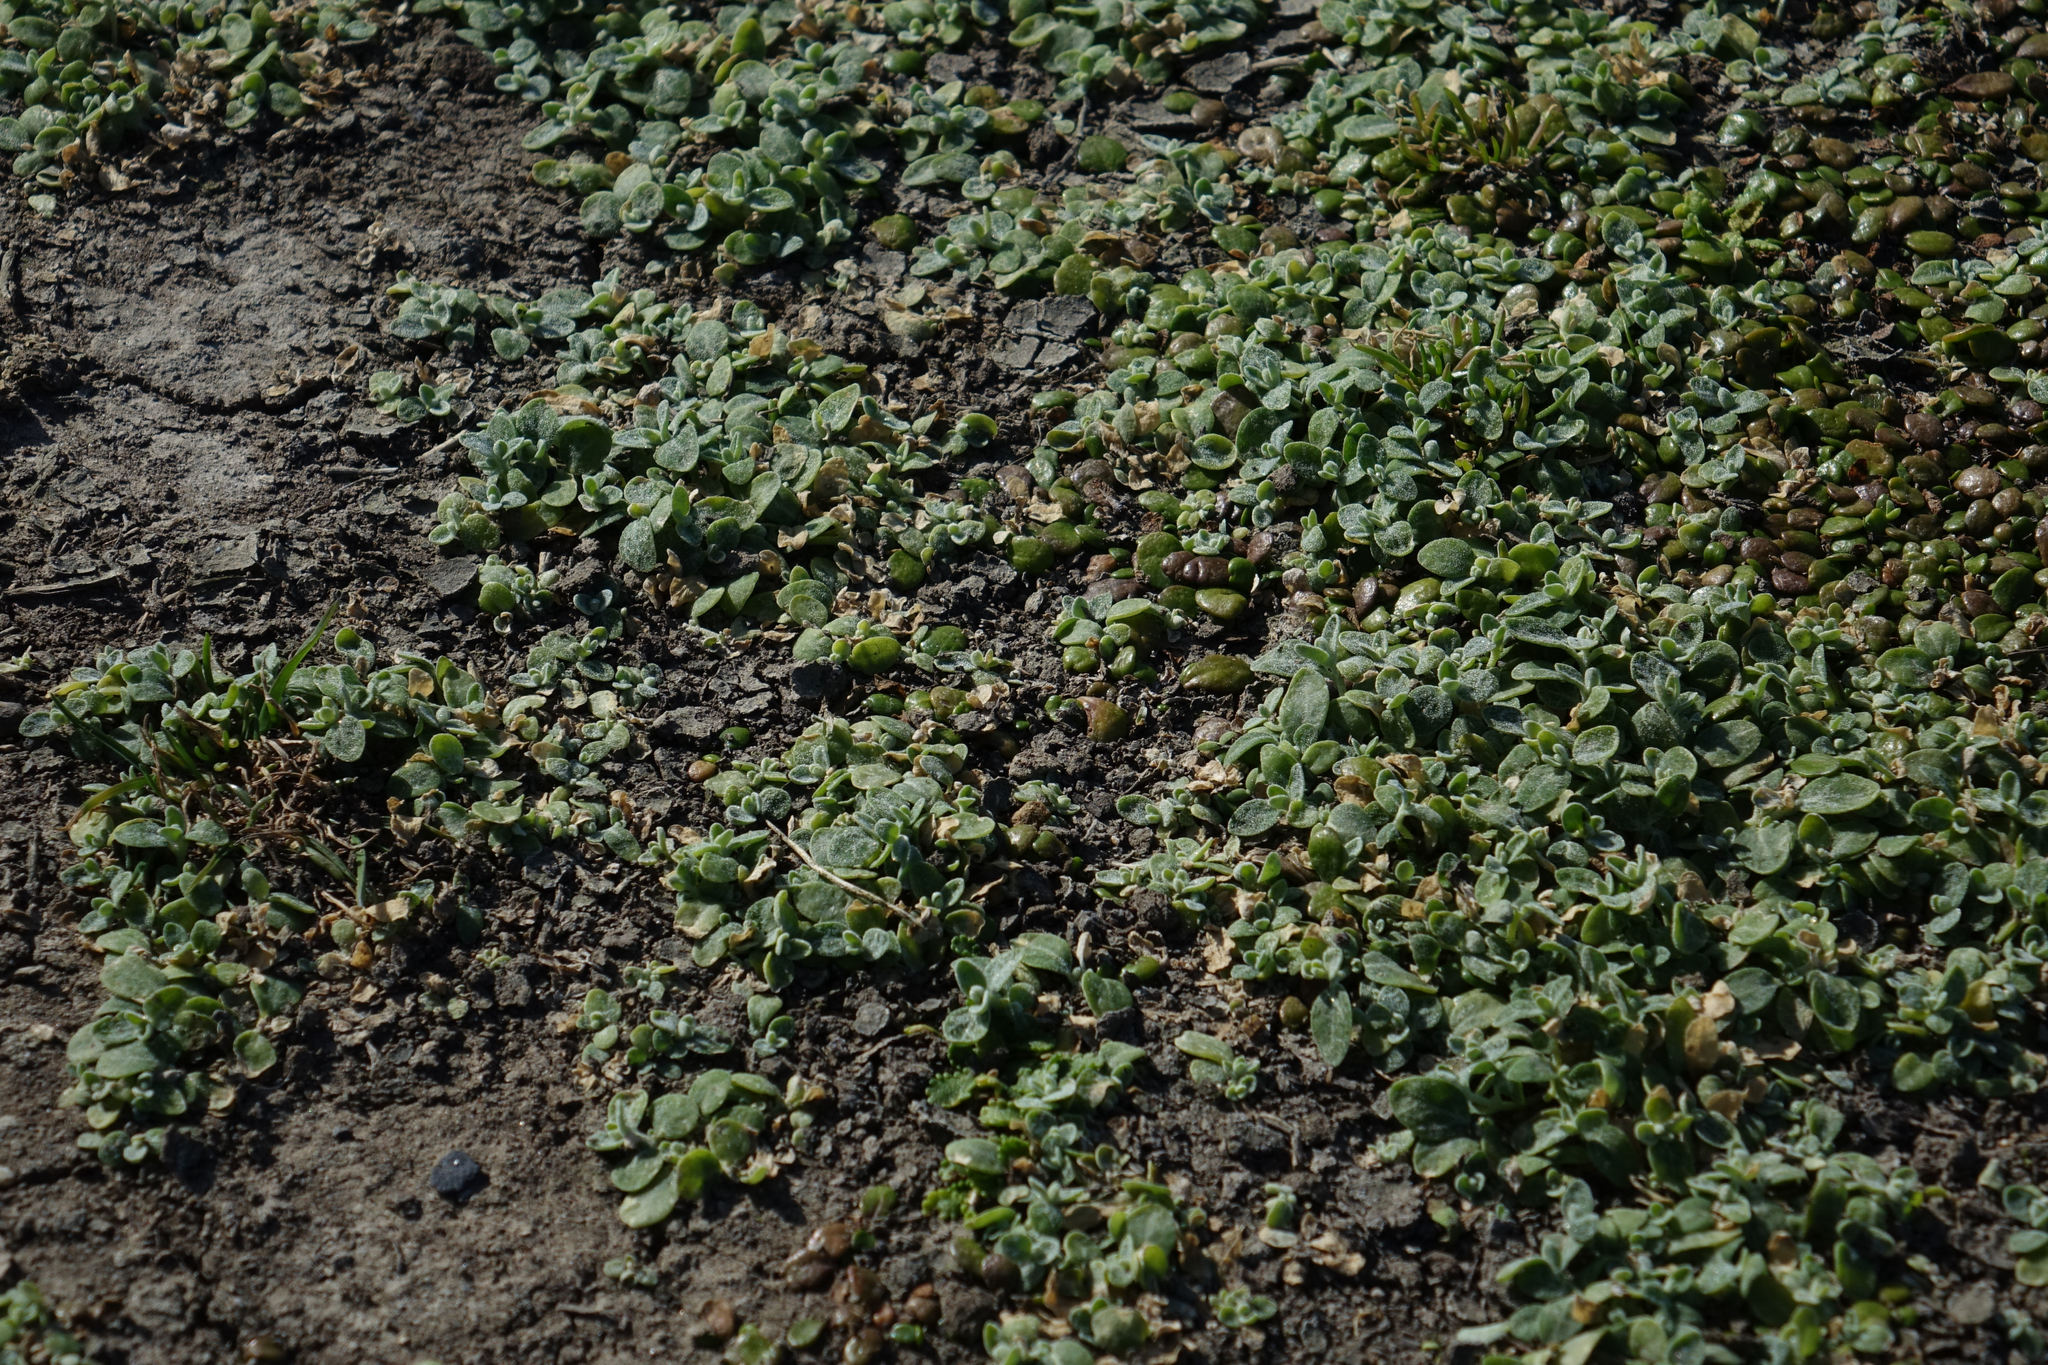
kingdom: Plantae
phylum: Tracheophyta
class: Magnoliopsida
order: Caryophyllales
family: Amaranthaceae
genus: Atriplex
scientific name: Atriplex buchananii
